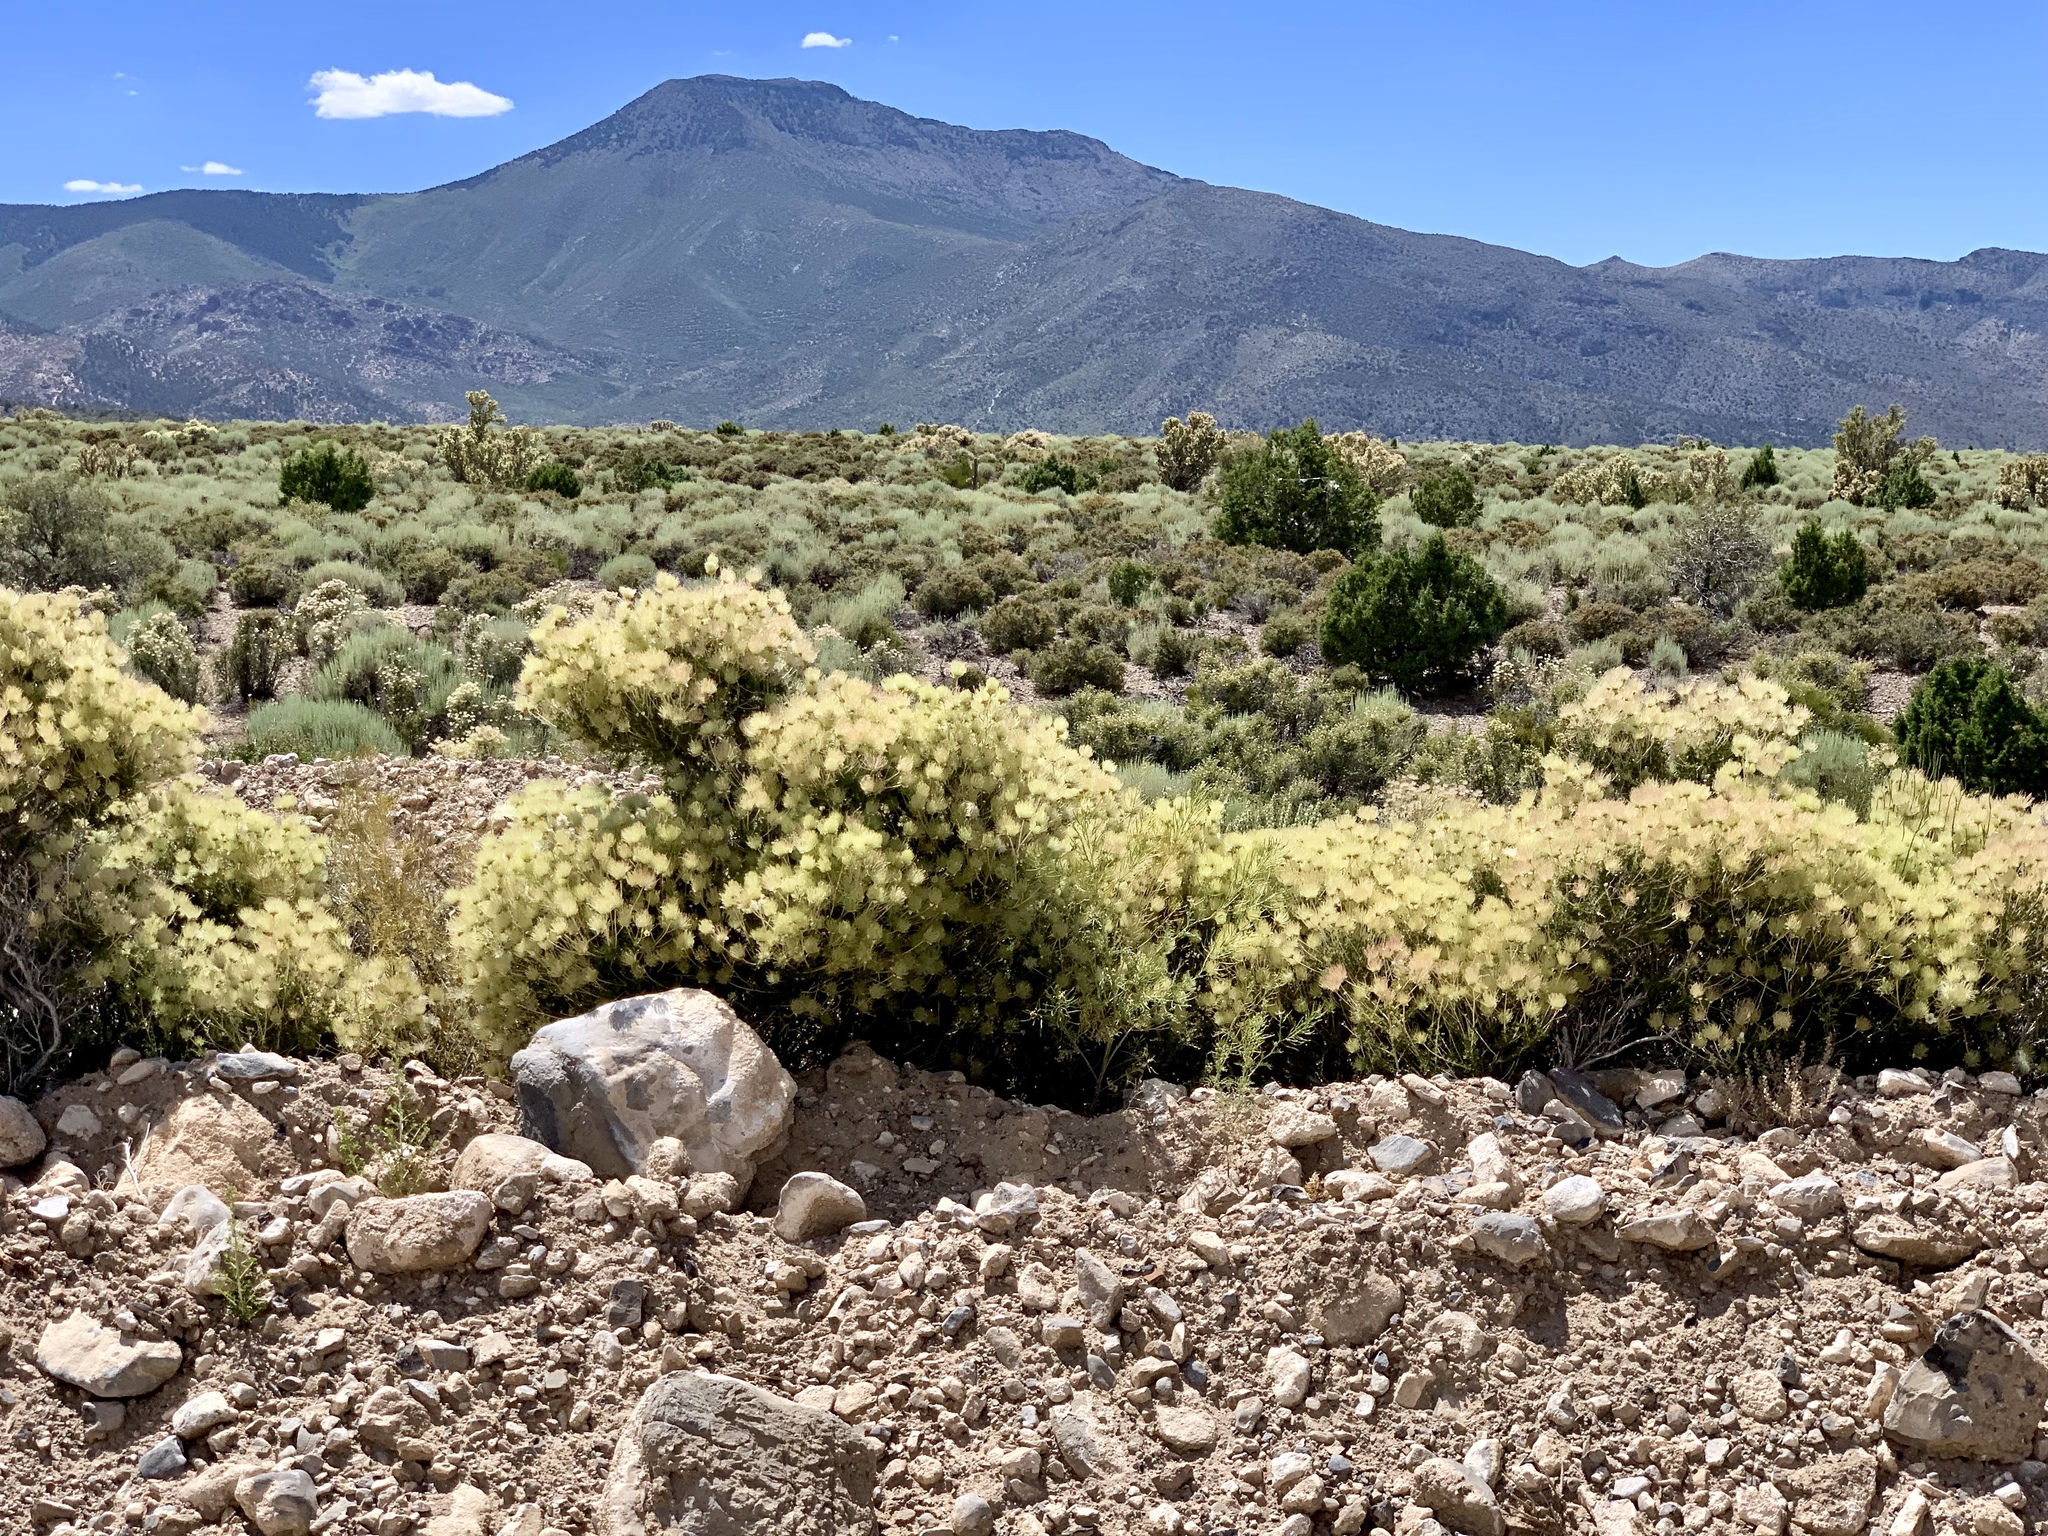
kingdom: Plantae
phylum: Tracheophyta
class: Magnoliopsida
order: Rosales
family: Rosaceae
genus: Fallugia
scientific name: Fallugia paradoxa
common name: Apache-plume
